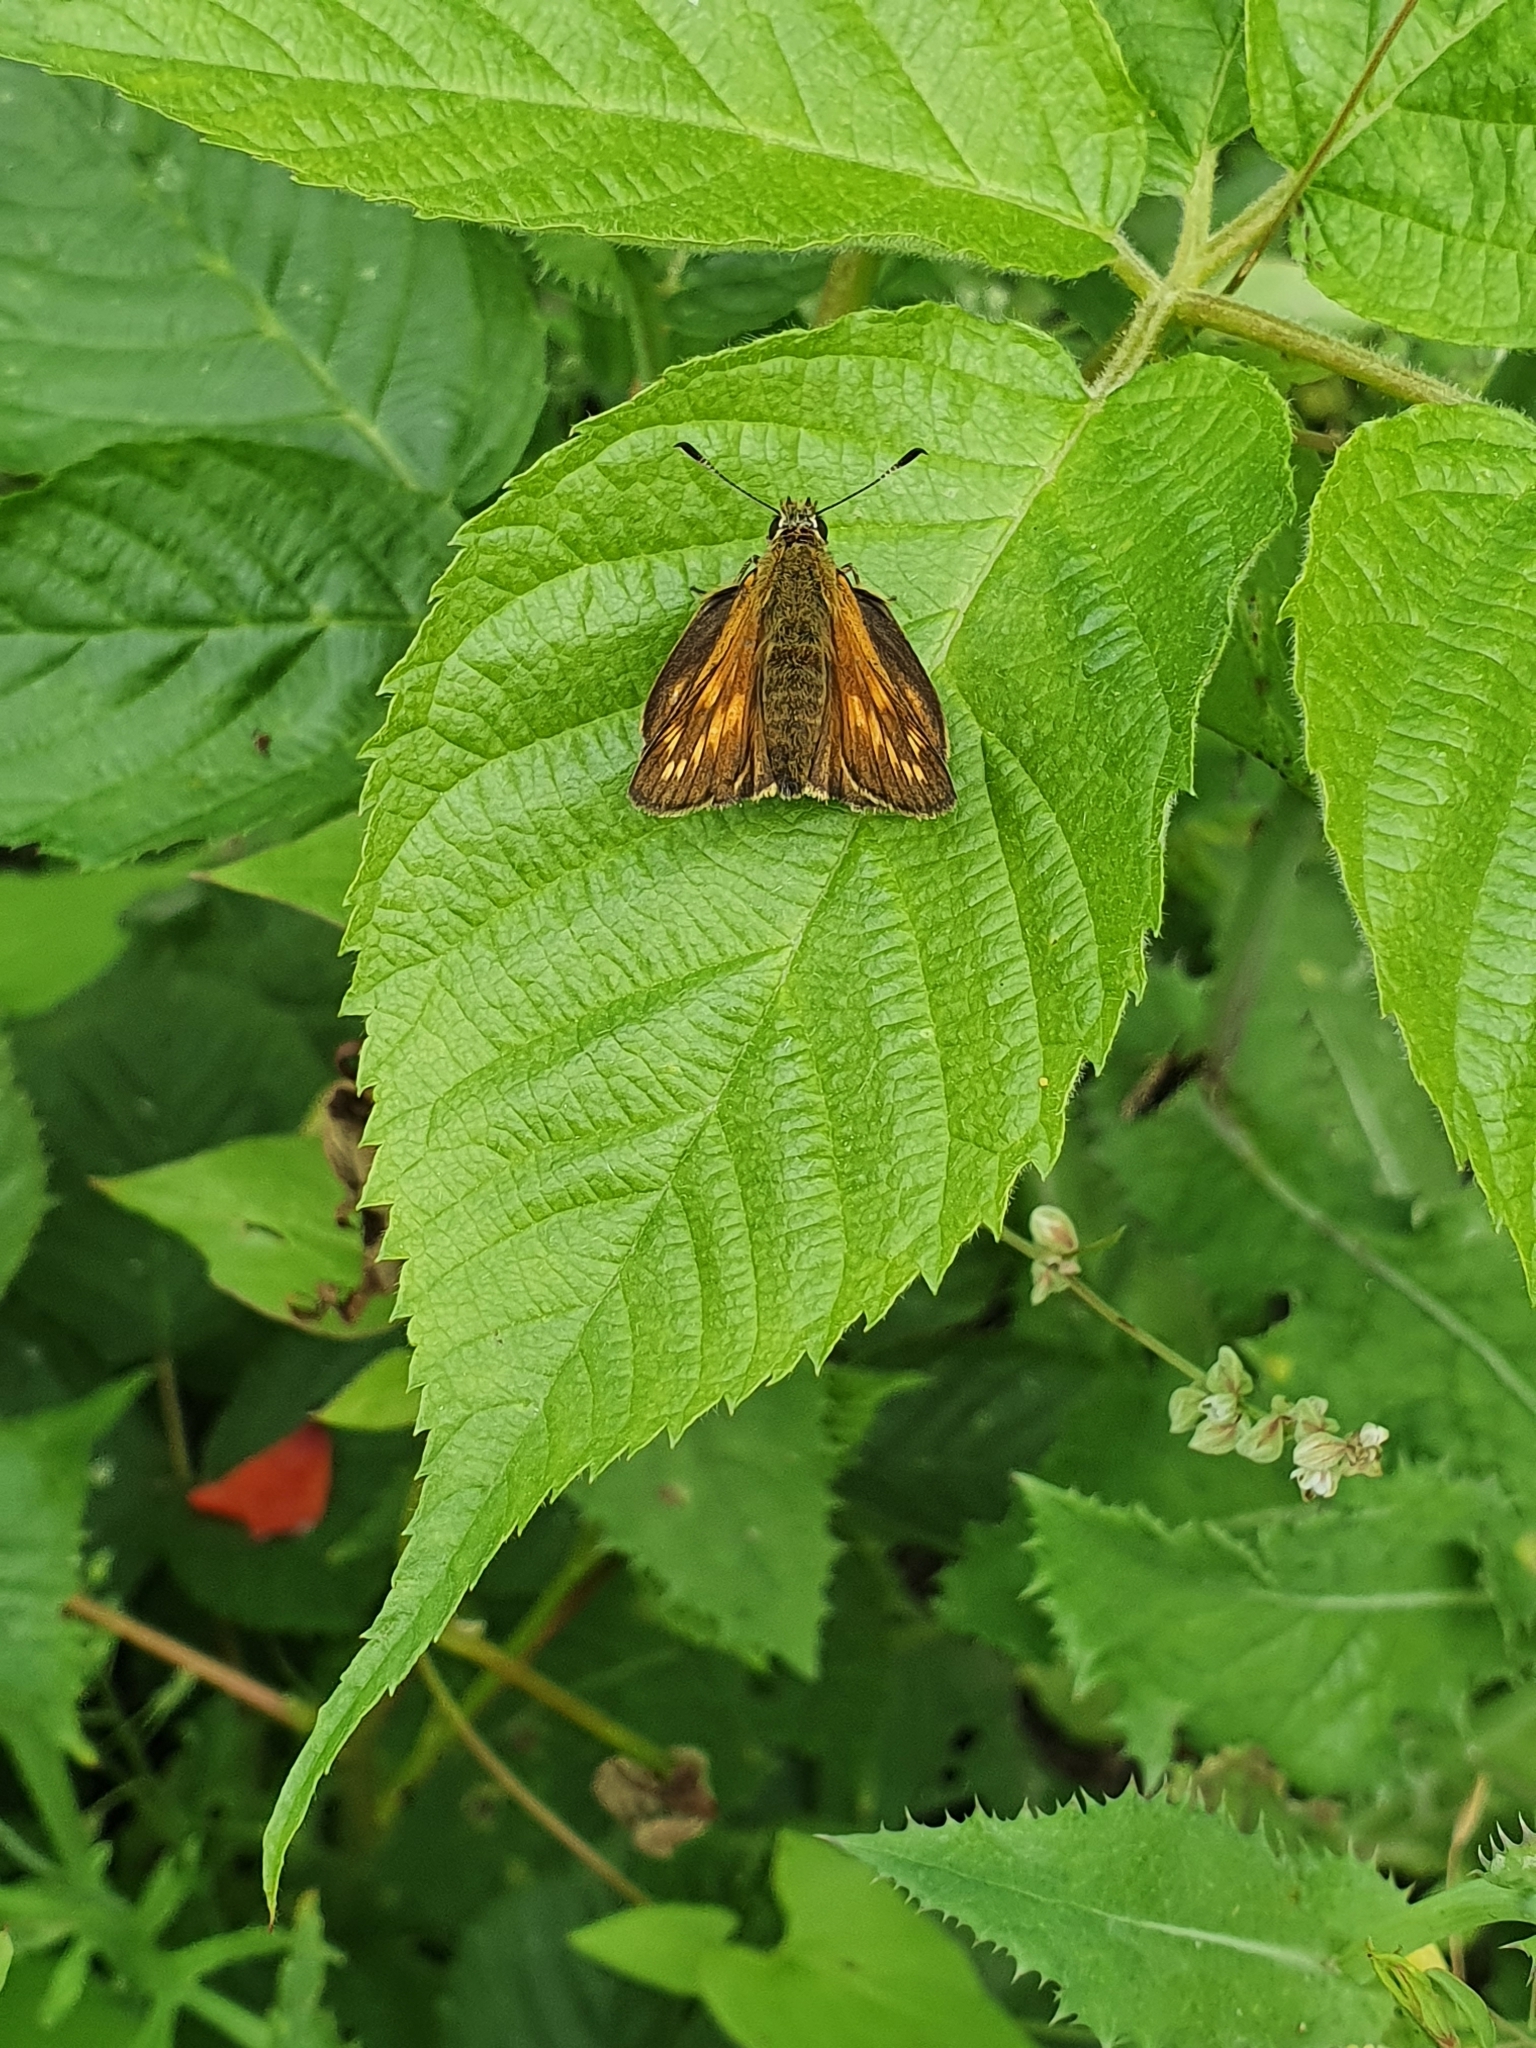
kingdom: Animalia
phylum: Arthropoda
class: Insecta
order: Lepidoptera
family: Hesperiidae
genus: Ochlodes
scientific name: Ochlodes venata
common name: Large skipper
